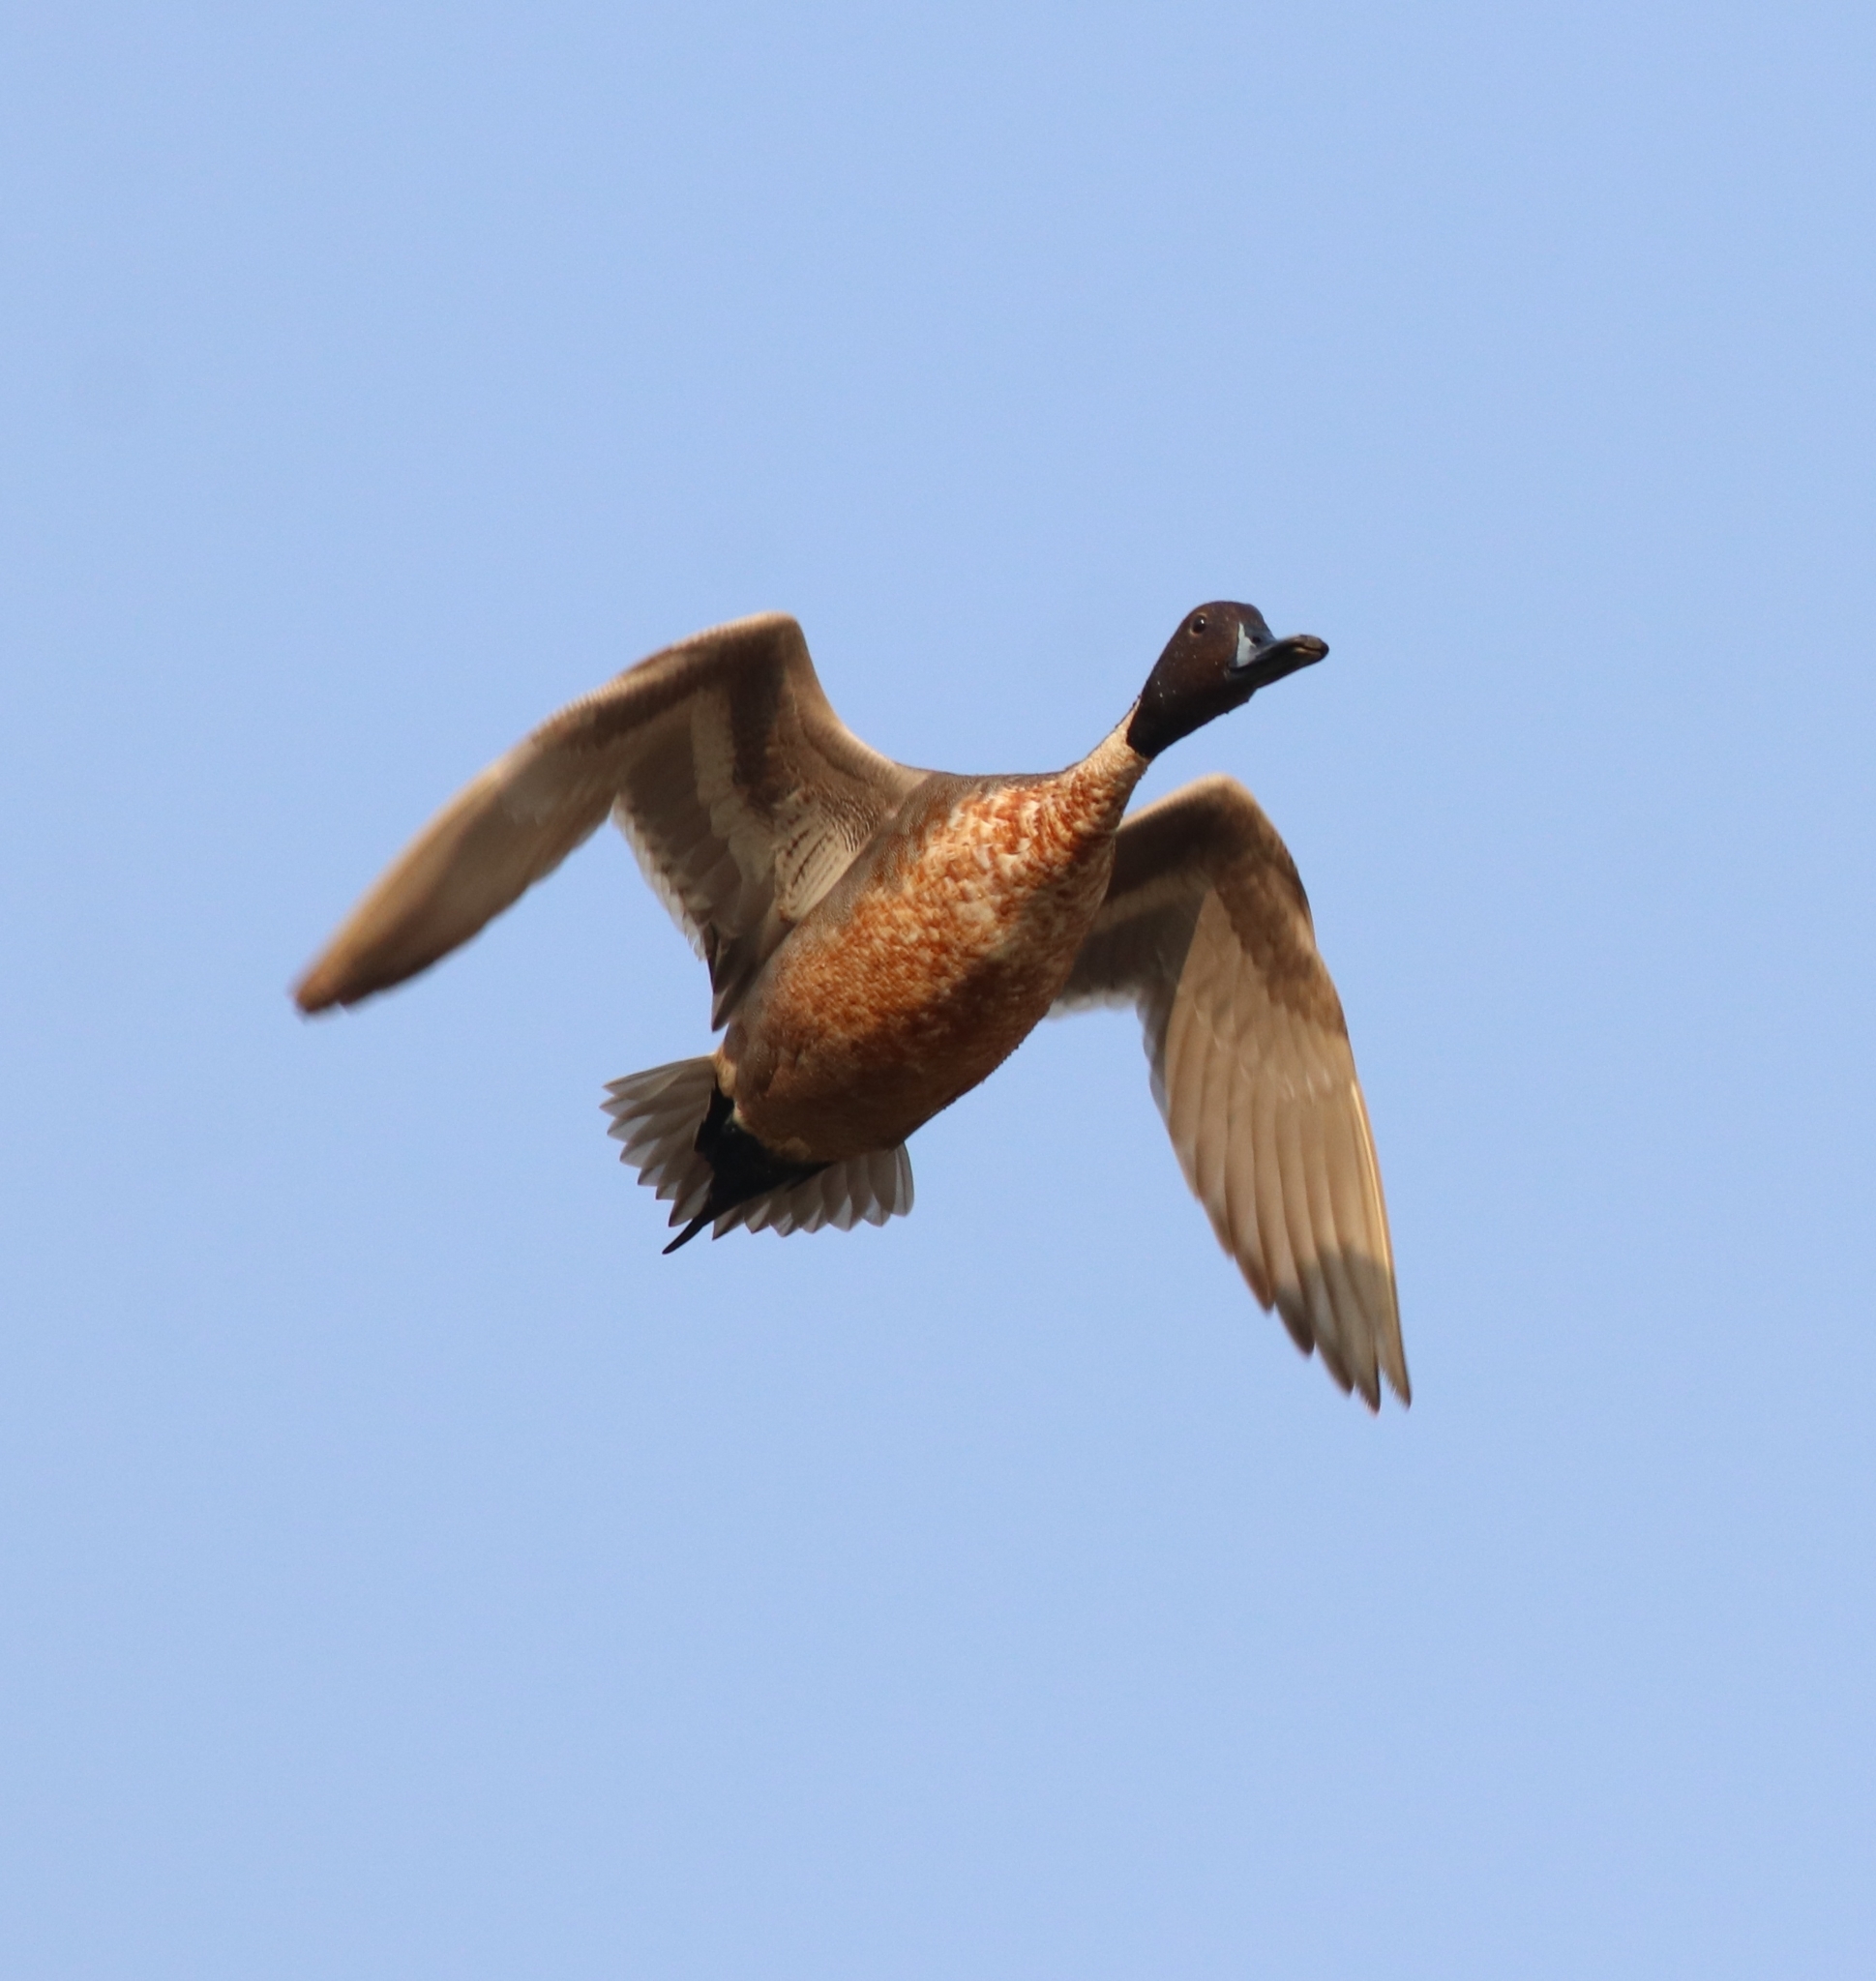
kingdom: Animalia
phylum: Chordata
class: Aves
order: Anseriformes
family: Anatidae
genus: Anas
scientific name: Anas acuta
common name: Northern pintail
